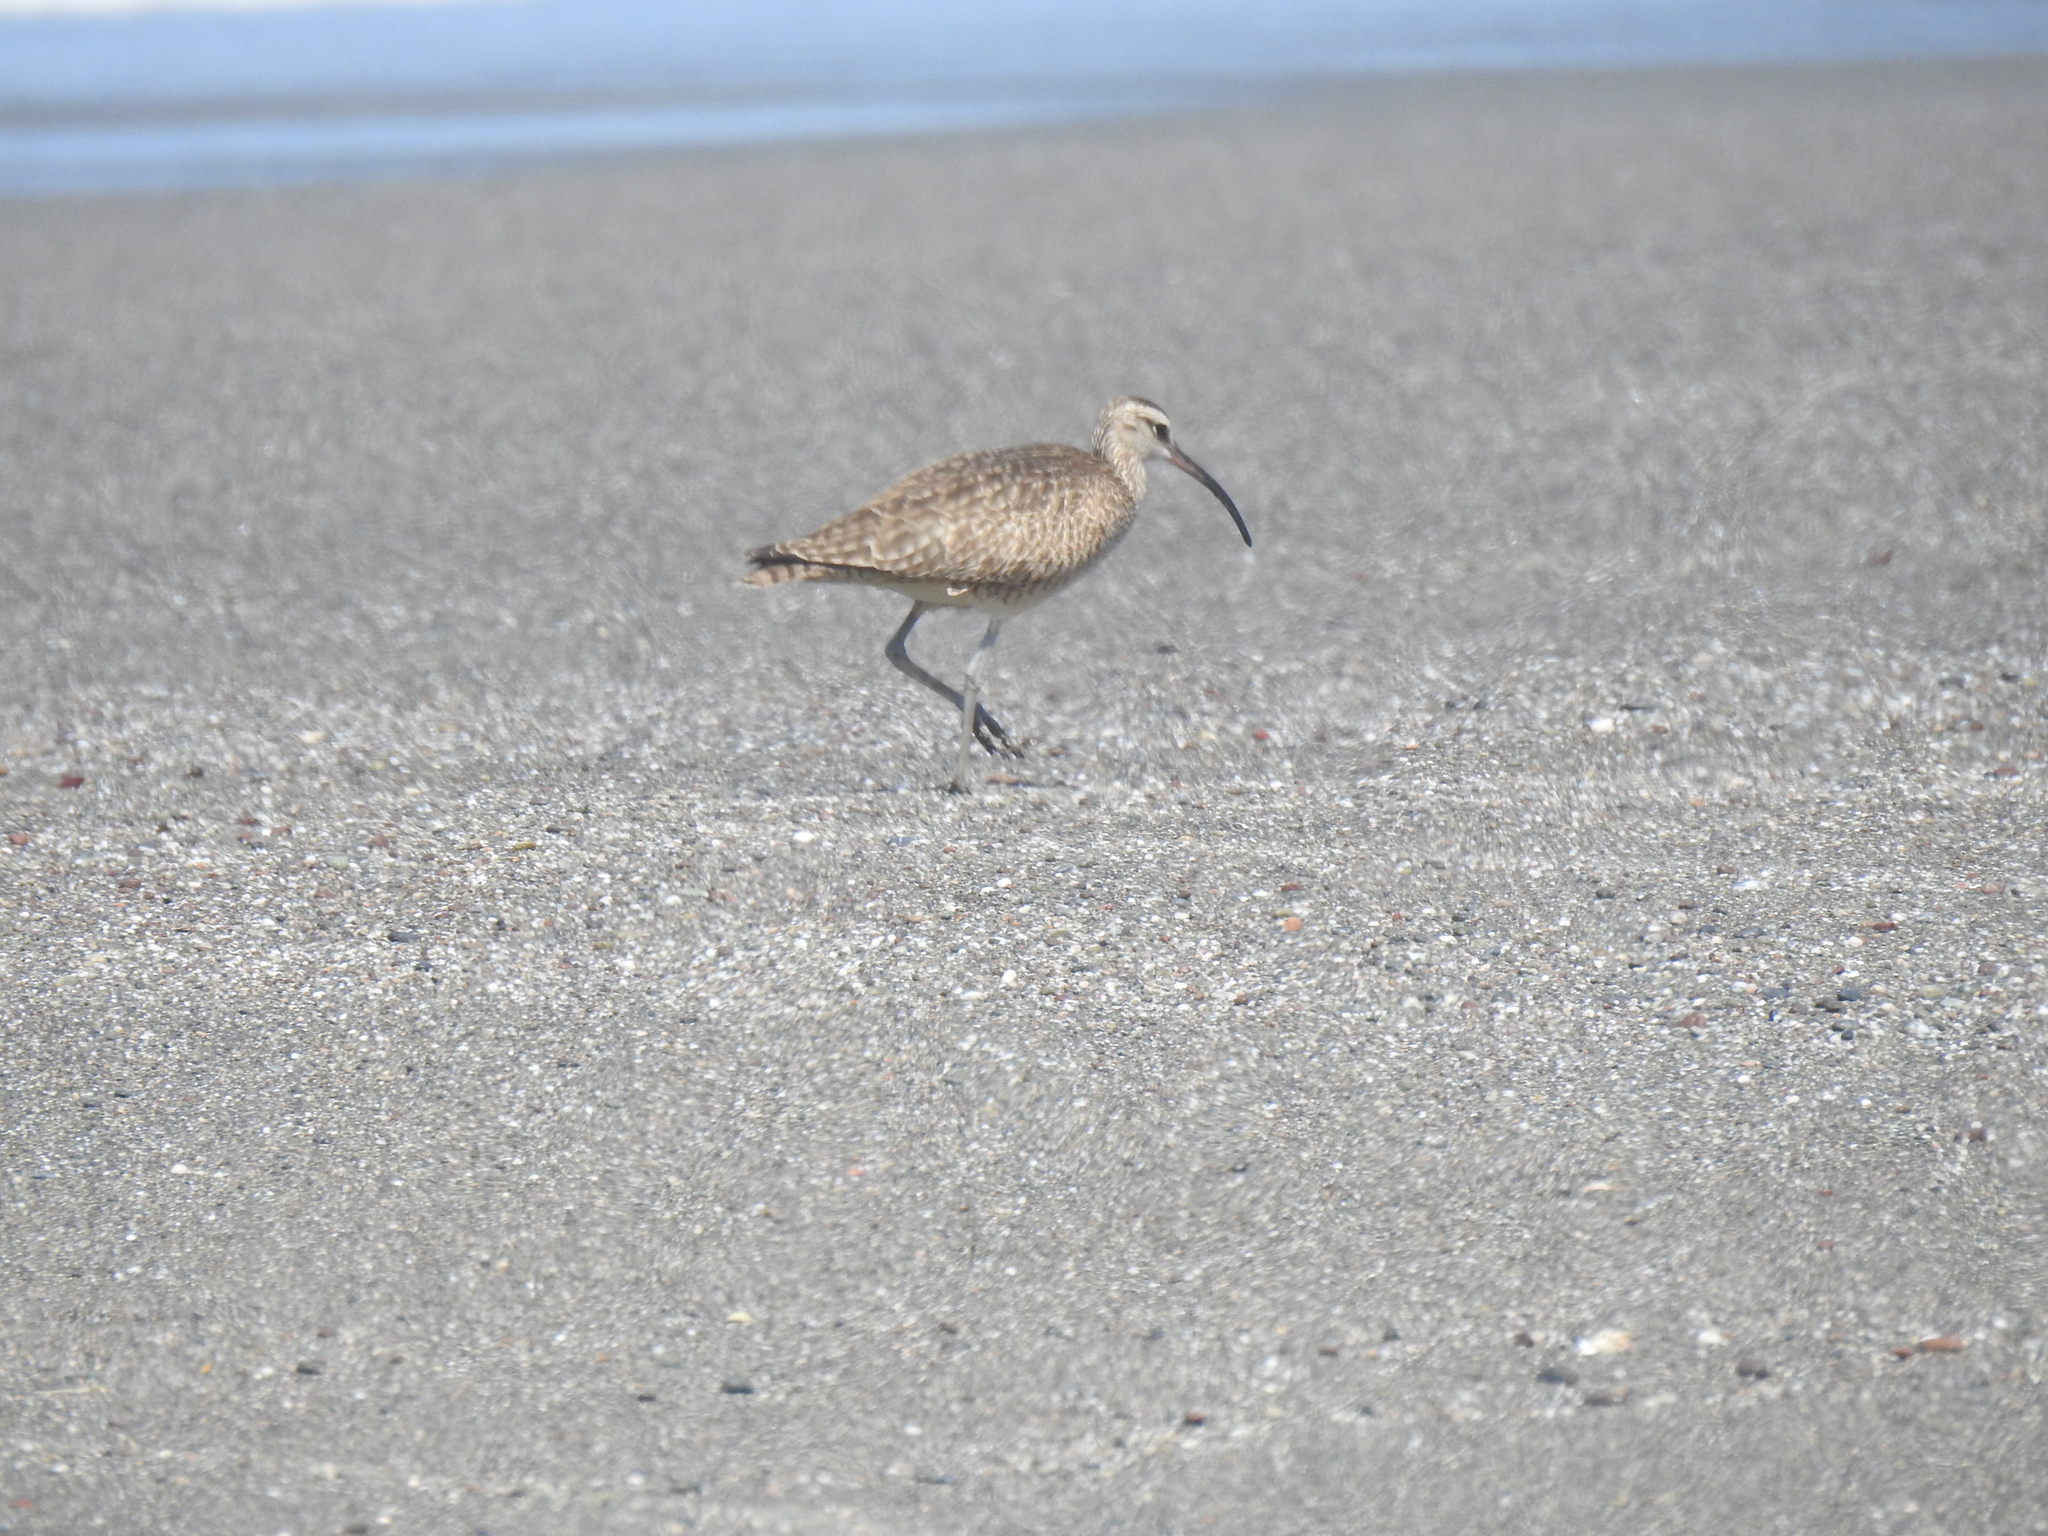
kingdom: Animalia
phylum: Chordata
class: Aves
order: Charadriiformes
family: Scolopacidae
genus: Numenius
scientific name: Numenius phaeopus
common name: Whimbrel
